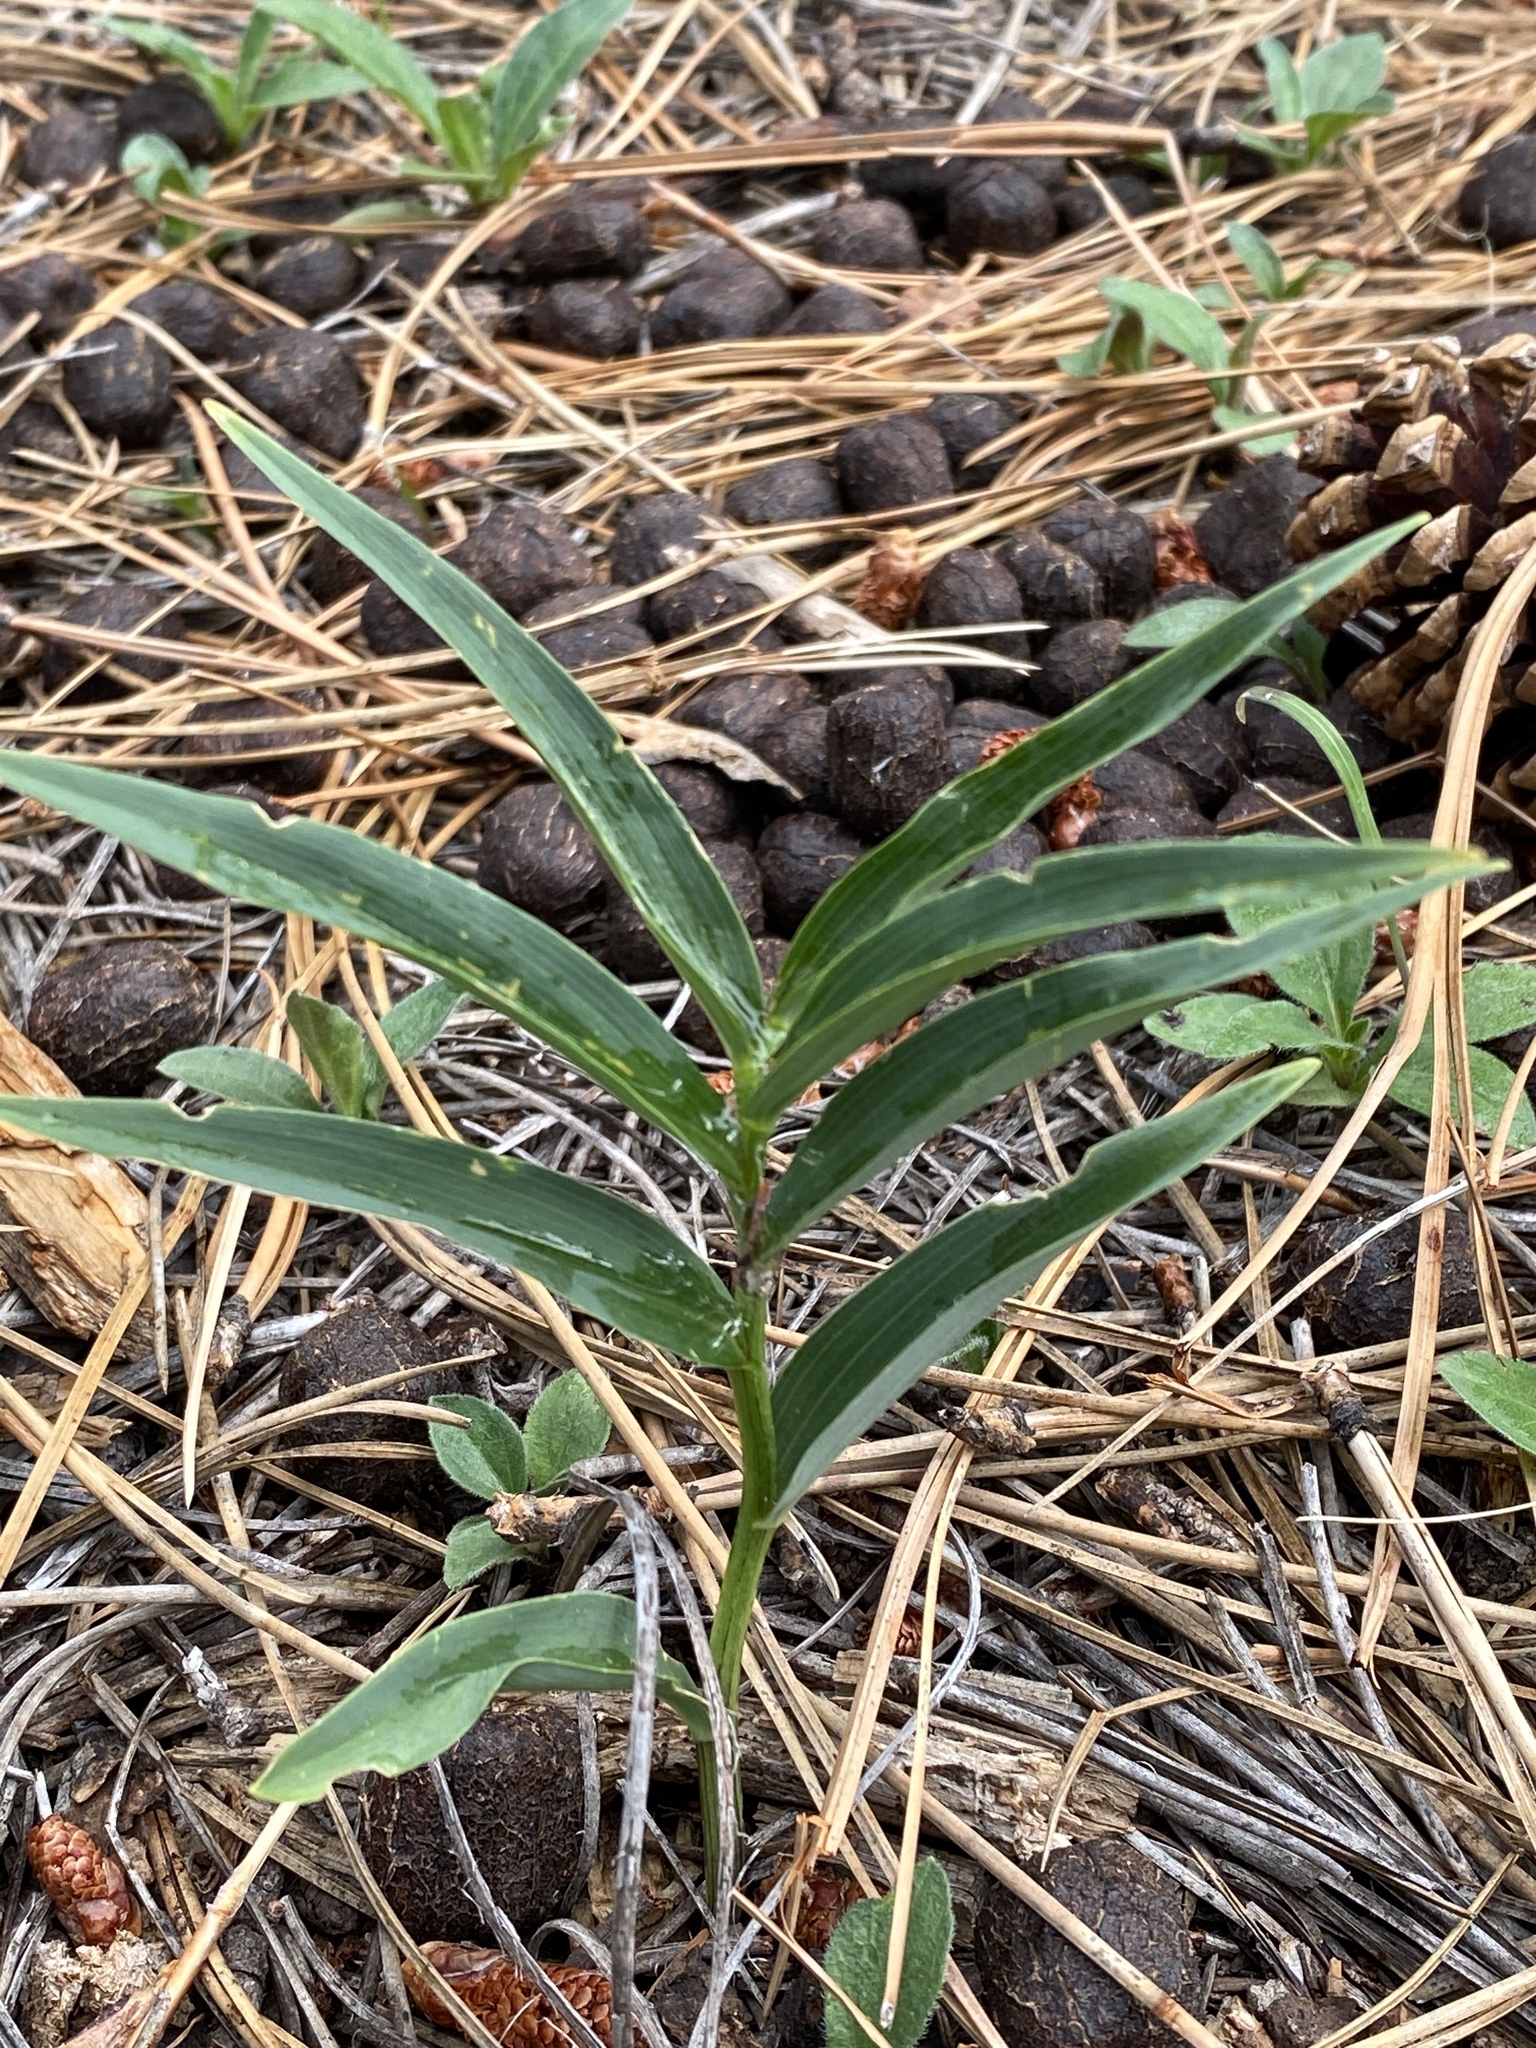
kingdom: Plantae
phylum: Tracheophyta
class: Liliopsida
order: Asparagales
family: Asparagaceae
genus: Maianthemum
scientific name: Maianthemum stellatum
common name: Little false solomon's seal
